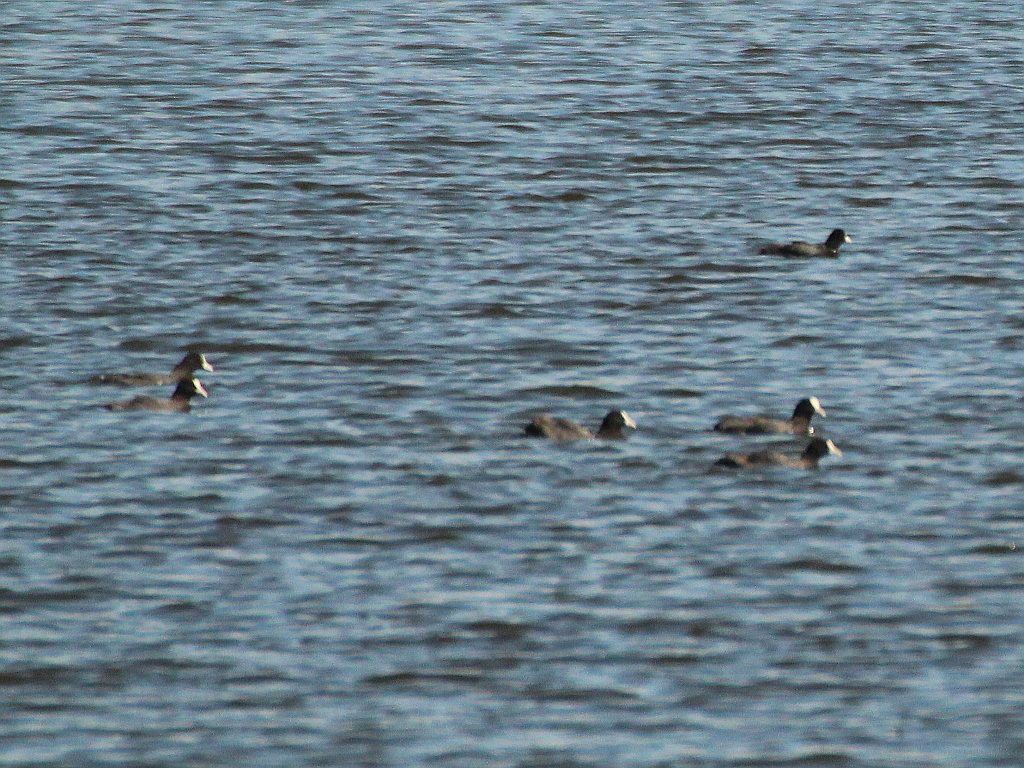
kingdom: Animalia
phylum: Chordata
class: Aves
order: Gruiformes
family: Rallidae
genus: Fulica
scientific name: Fulica atra
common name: Eurasian coot
